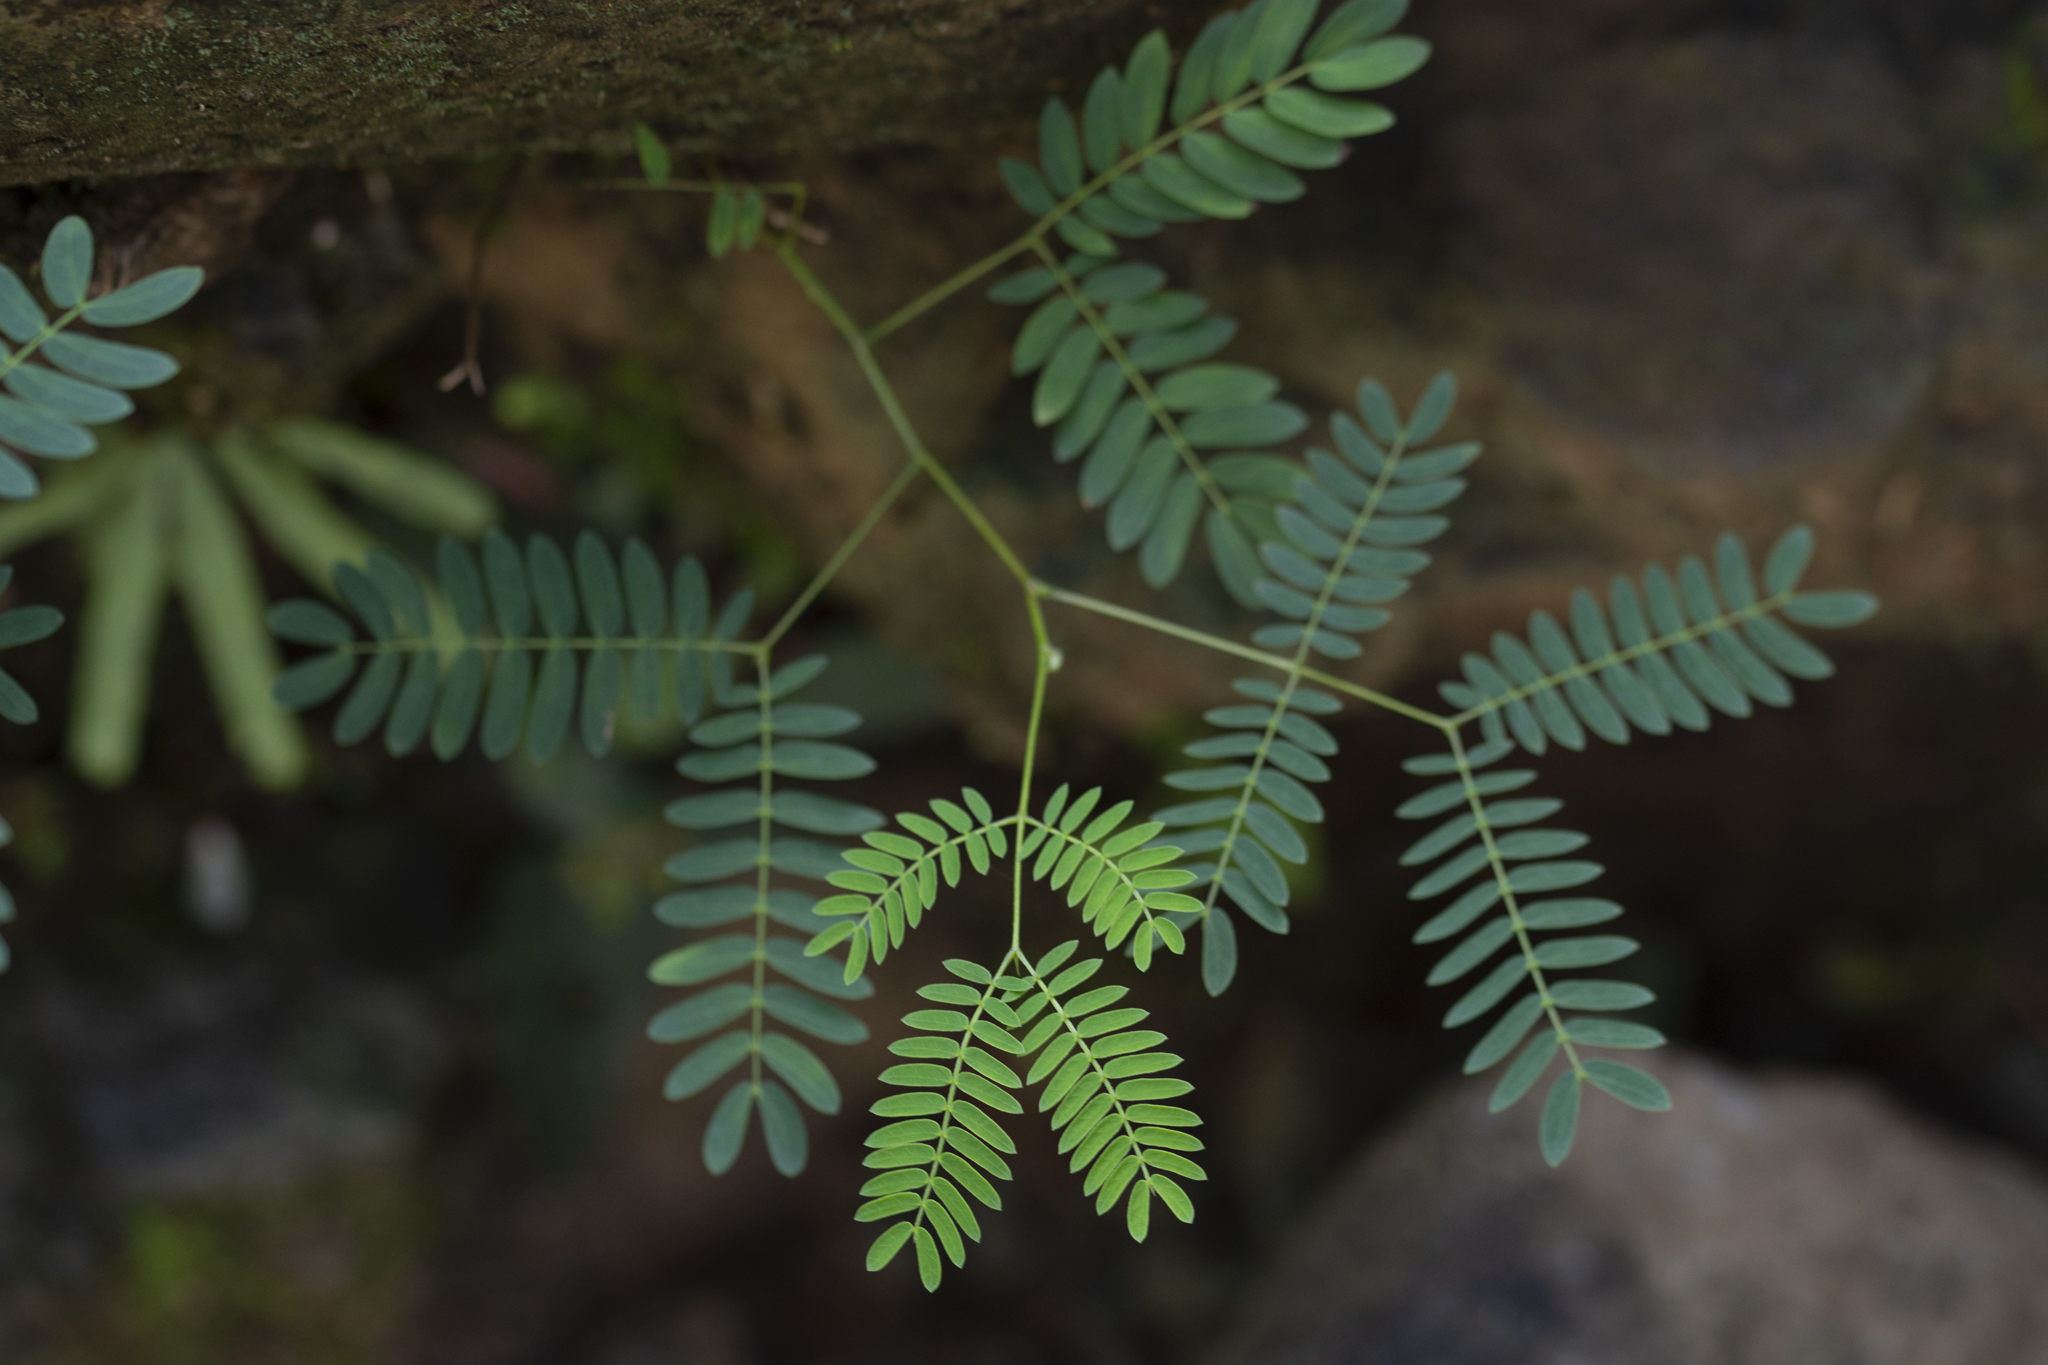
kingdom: Plantae
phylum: Tracheophyta
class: Magnoliopsida
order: Fabales
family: Fabaceae
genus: Leucaena
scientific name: Leucaena leucocephala
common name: White leadtree
